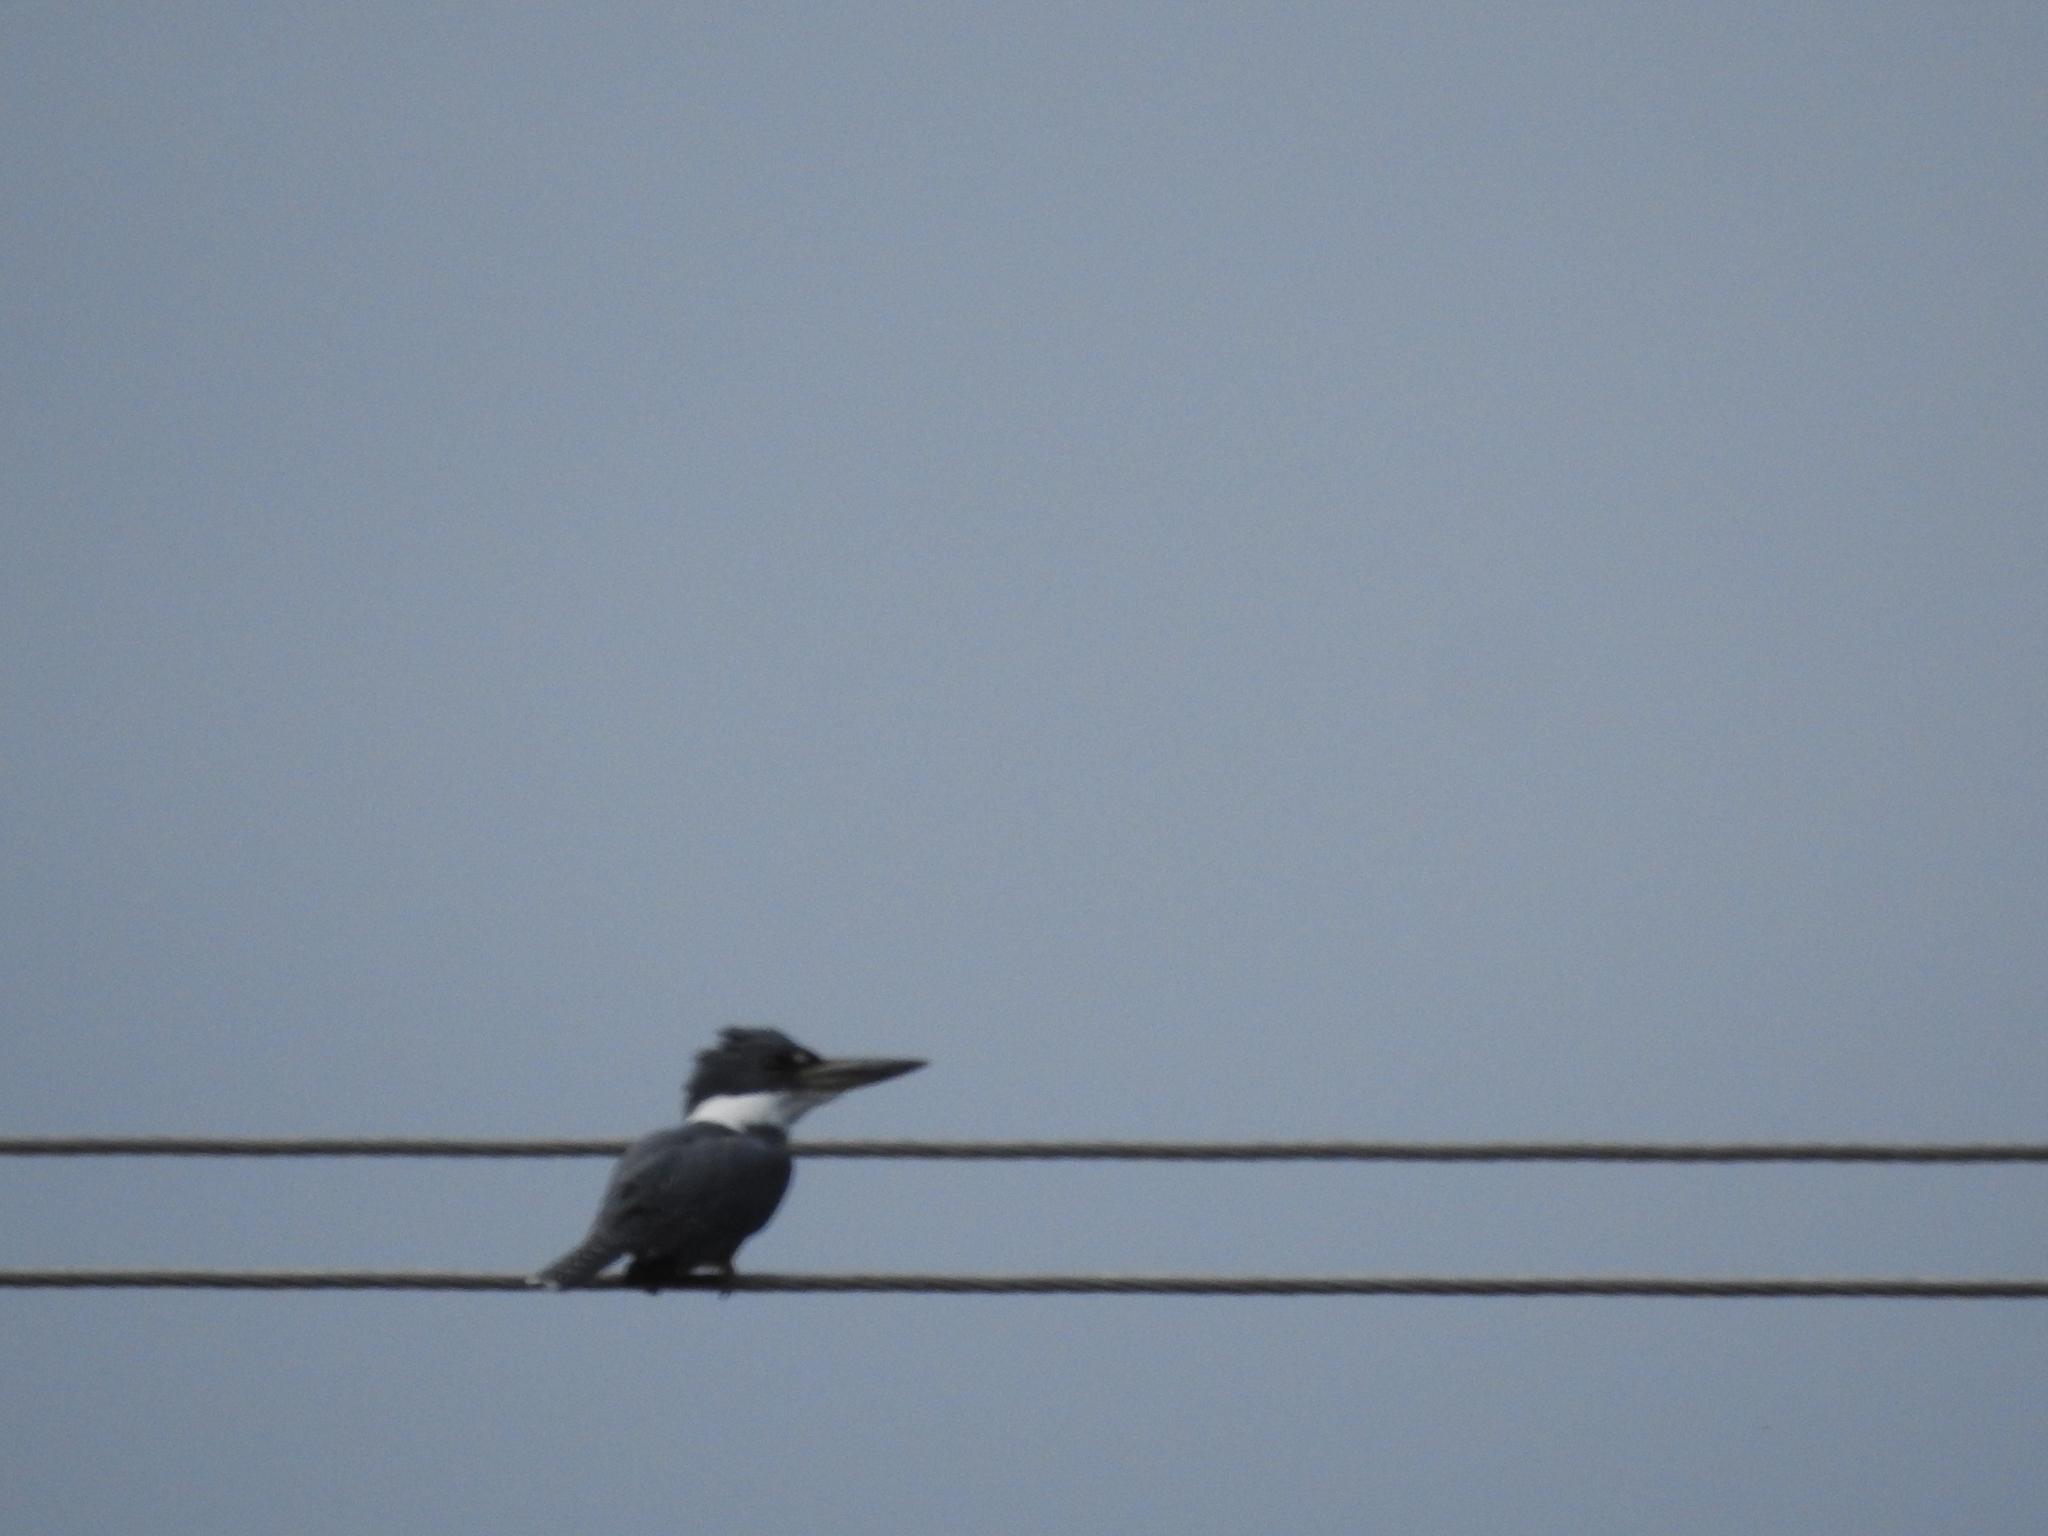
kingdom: Animalia
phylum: Chordata
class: Aves
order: Coraciiformes
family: Alcedinidae
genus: Megaceryle
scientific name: Megaceryle torquata
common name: Ringed kingfisher
